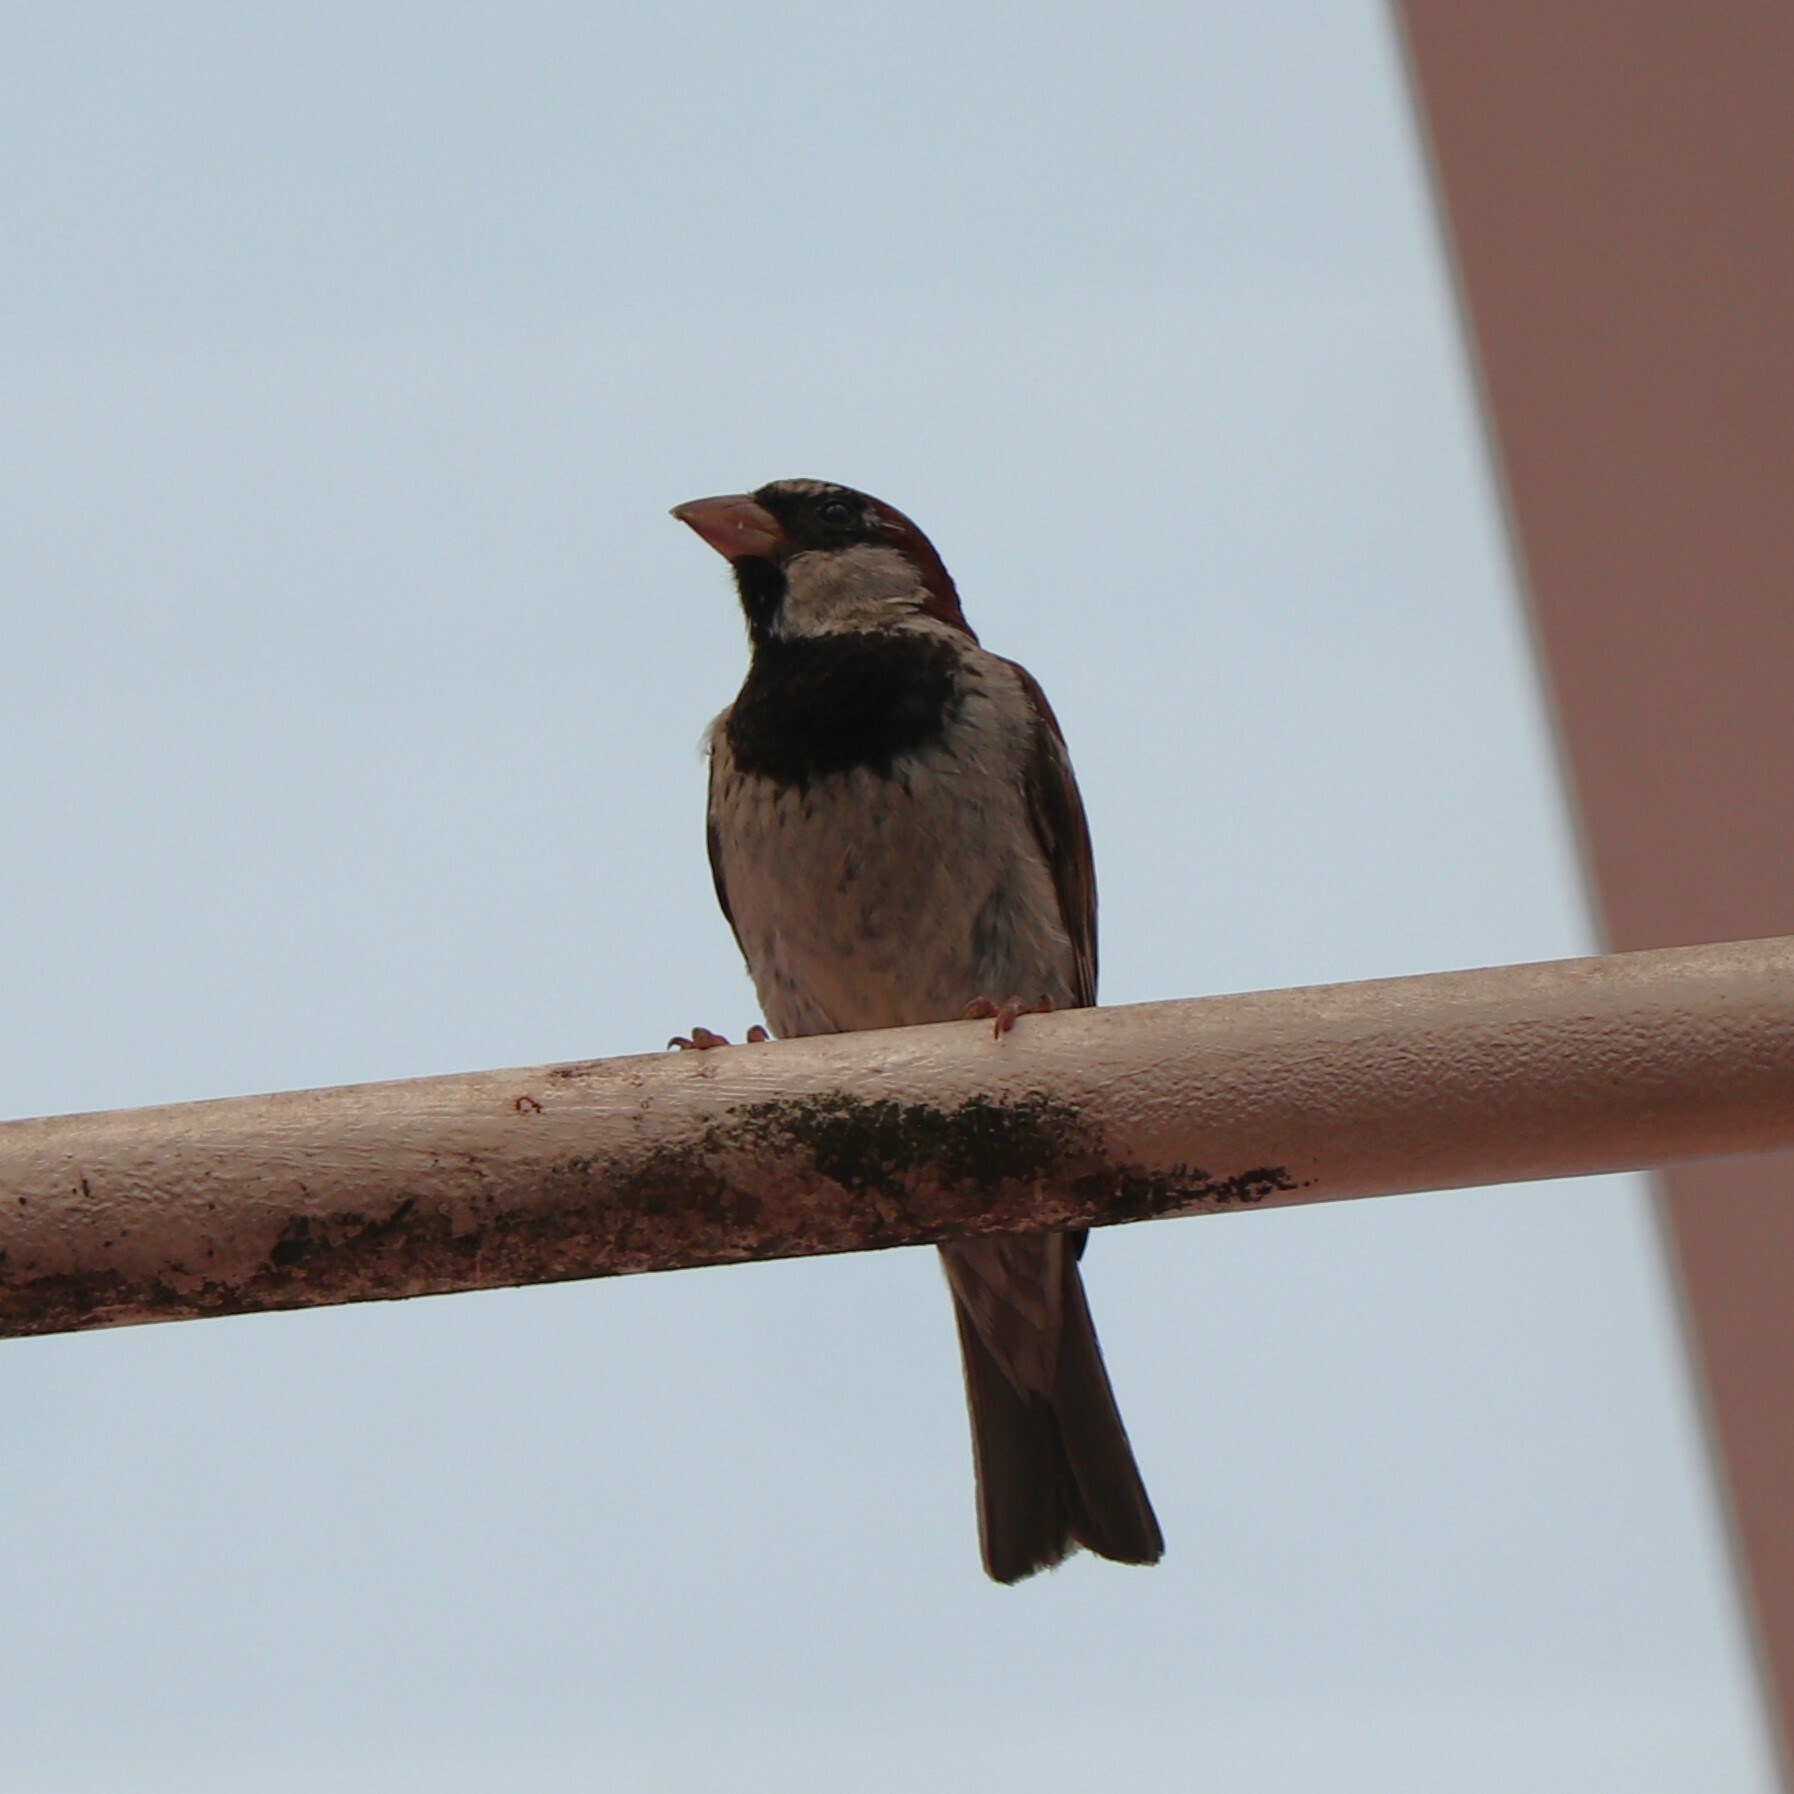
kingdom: Animalia
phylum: Chordata
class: Aves
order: Passeriformes
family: Passeridae
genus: Passer
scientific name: Passer domesticus
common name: House sparrow
